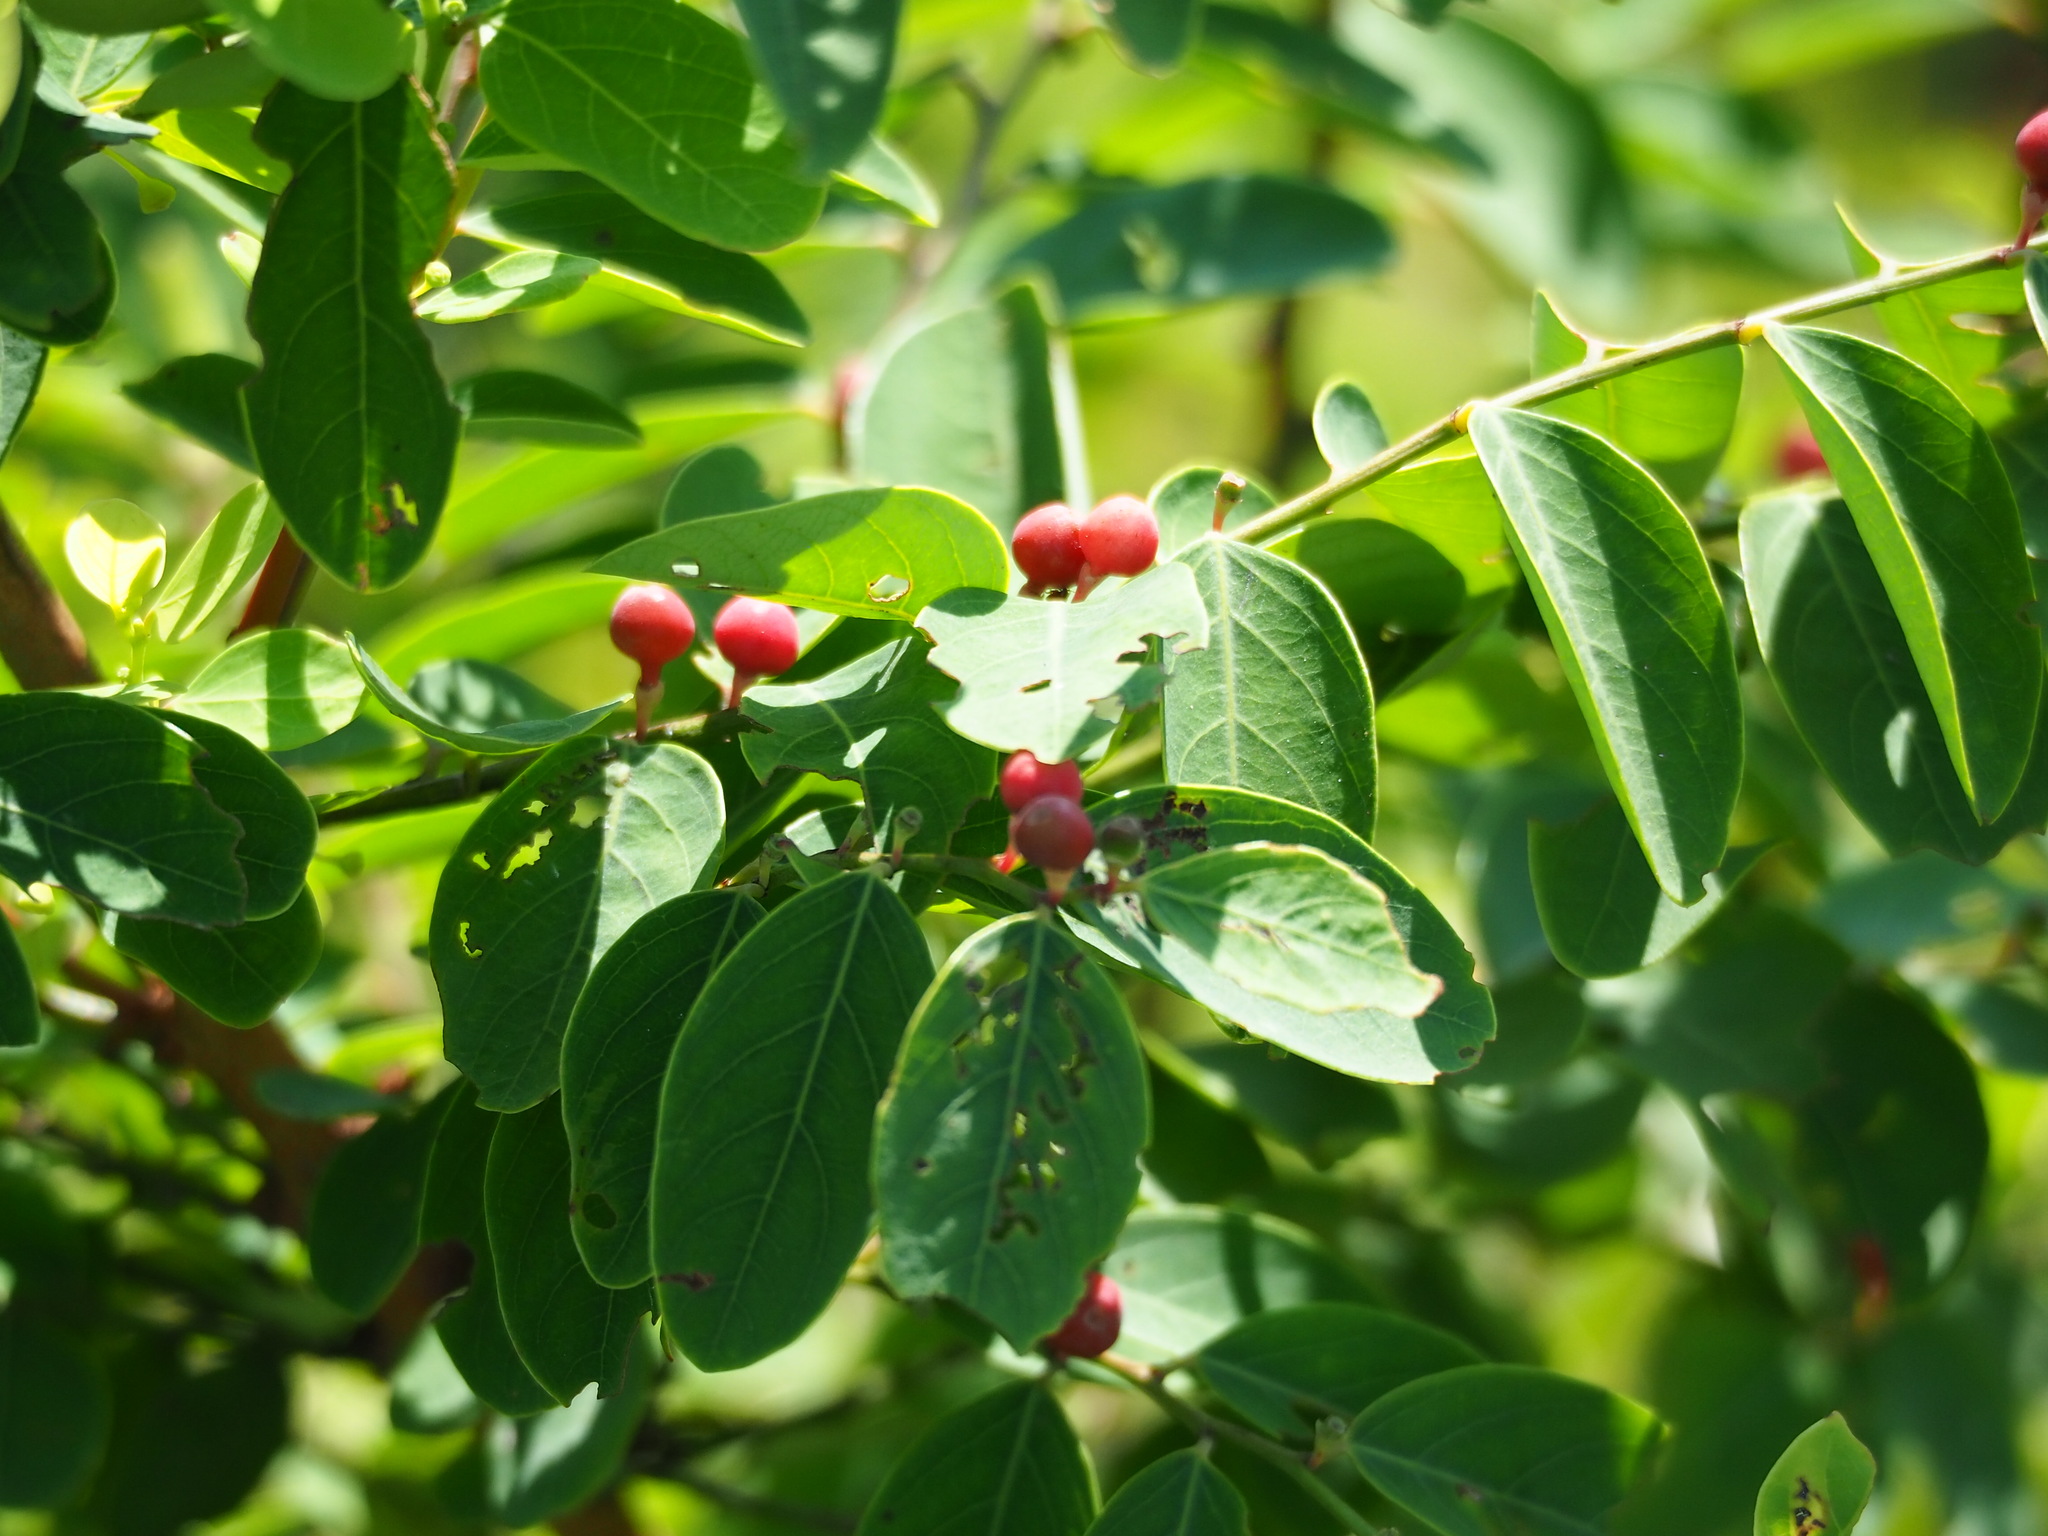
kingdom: Plantae
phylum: Tracheophyta
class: Magnoliopsida
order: Malpighiales
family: Phyllanthaceae
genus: Breynia
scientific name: Breynia vitis-idaea
